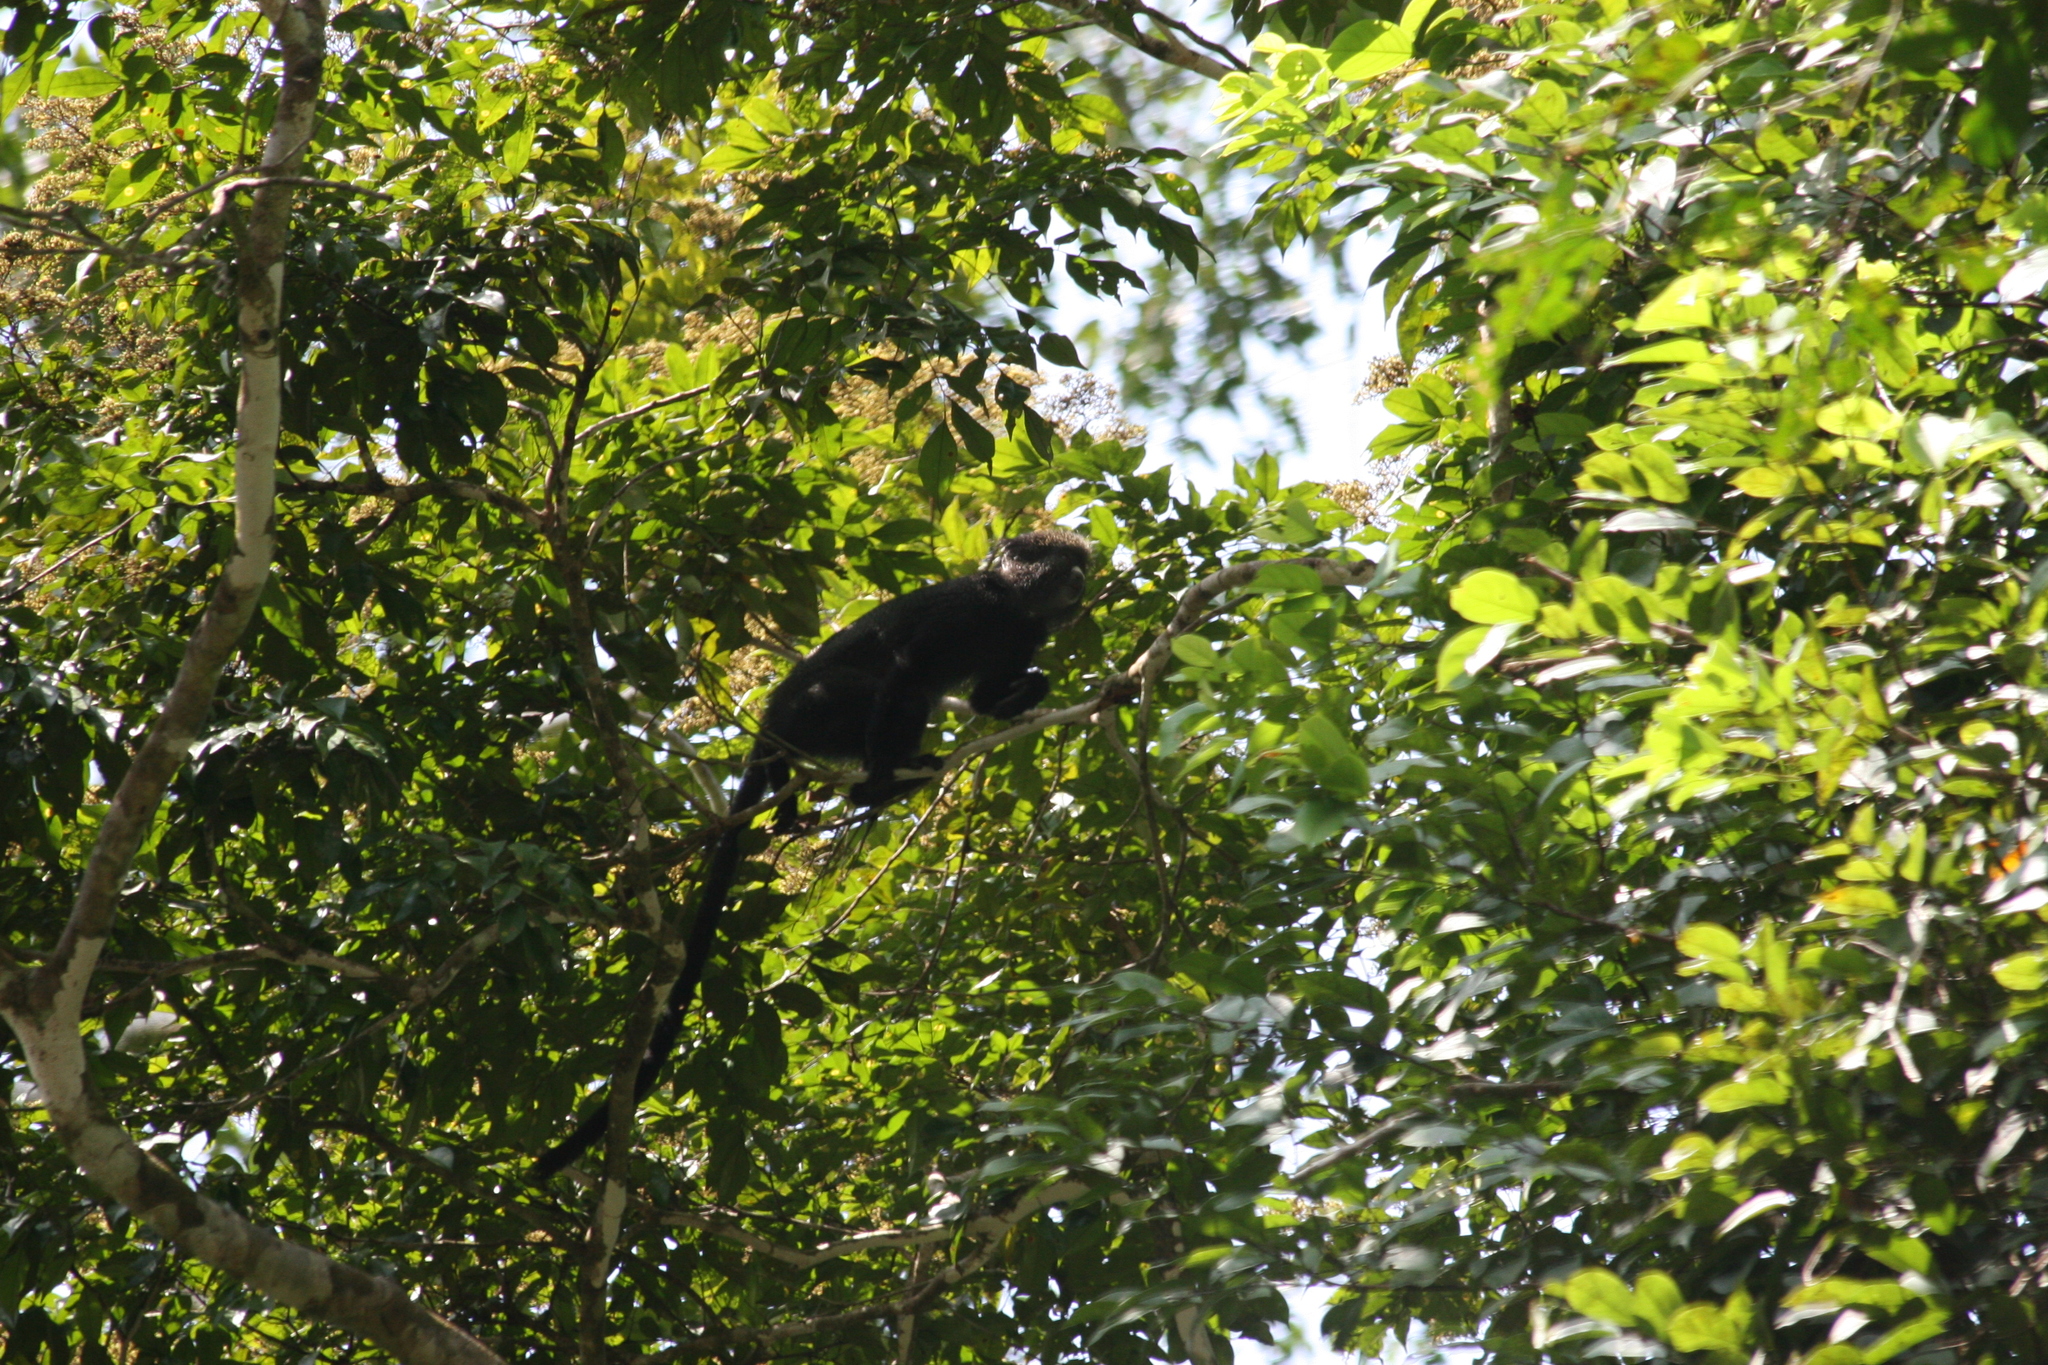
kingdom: Animalia
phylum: Chordata
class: Mammalia
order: Primates
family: Cercopithecidae
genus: Cercopithecus
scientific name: Cercopithecus nictitans
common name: Greater spot-nosed monkey
